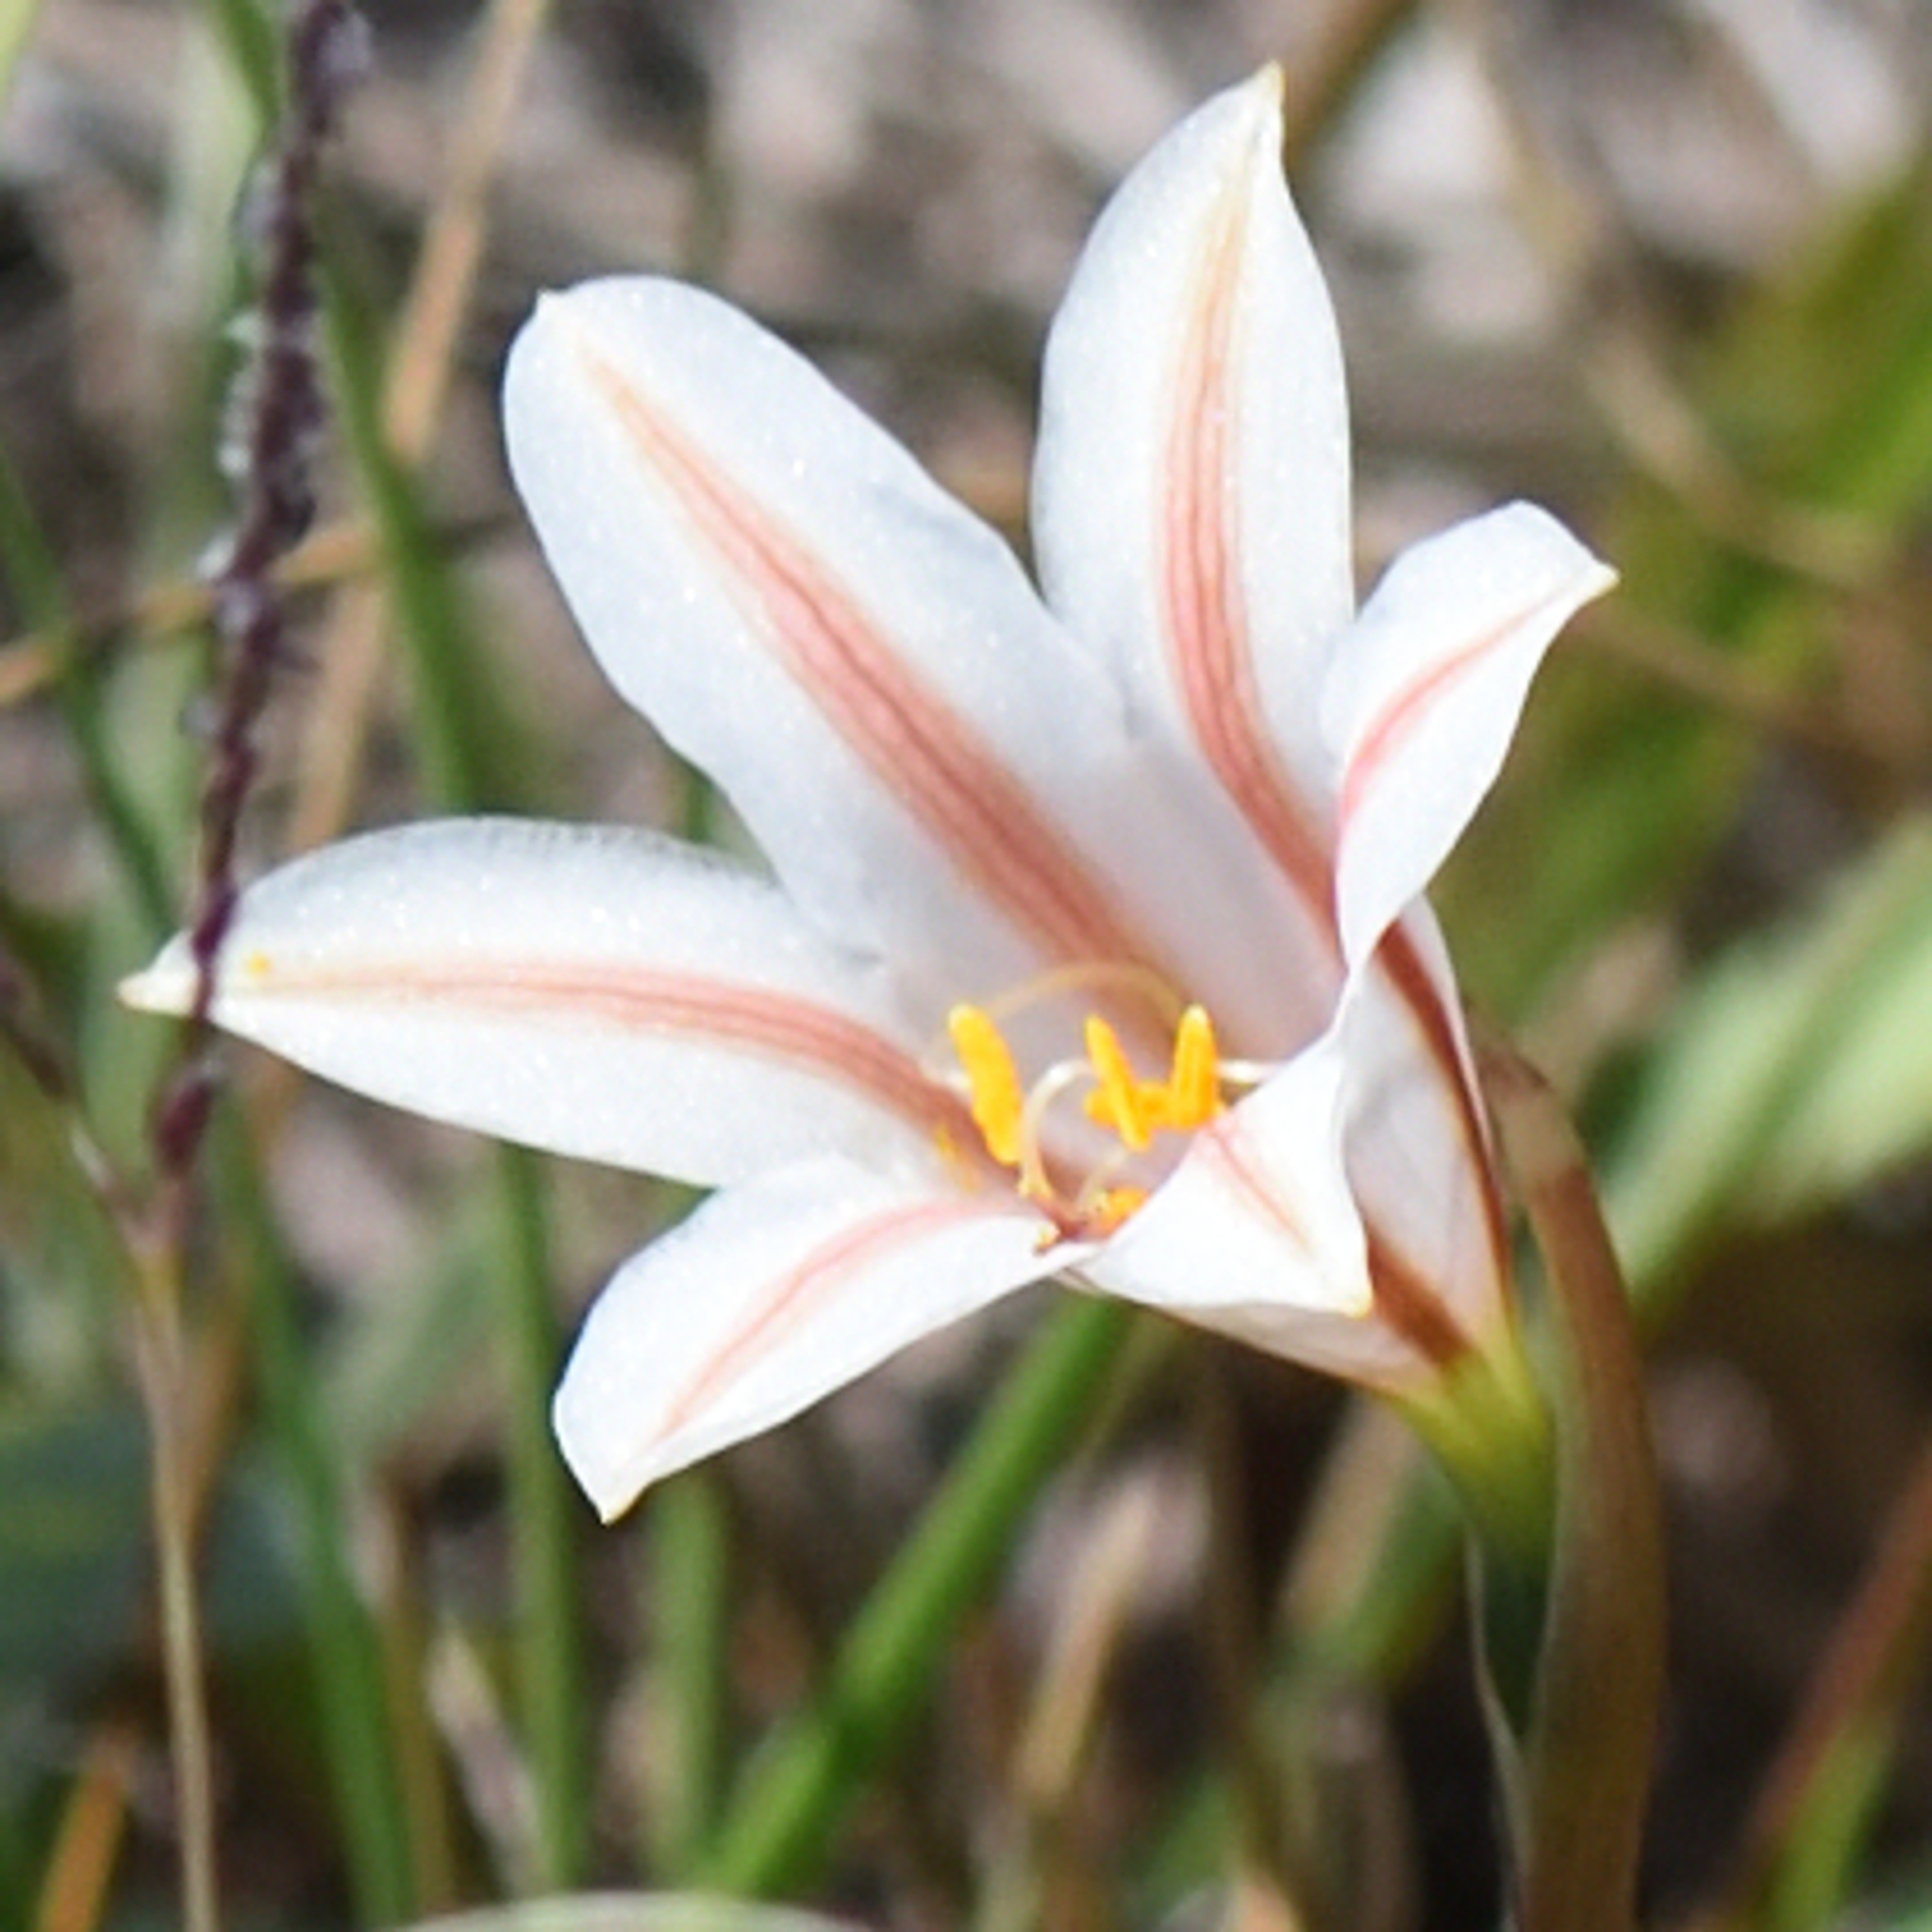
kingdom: Plantae
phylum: Tracheophyta
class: Liliopsida
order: Asparagales
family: Amaryllidaceae
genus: Cyrtanthus
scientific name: Cyrtanthus loddigesianus
